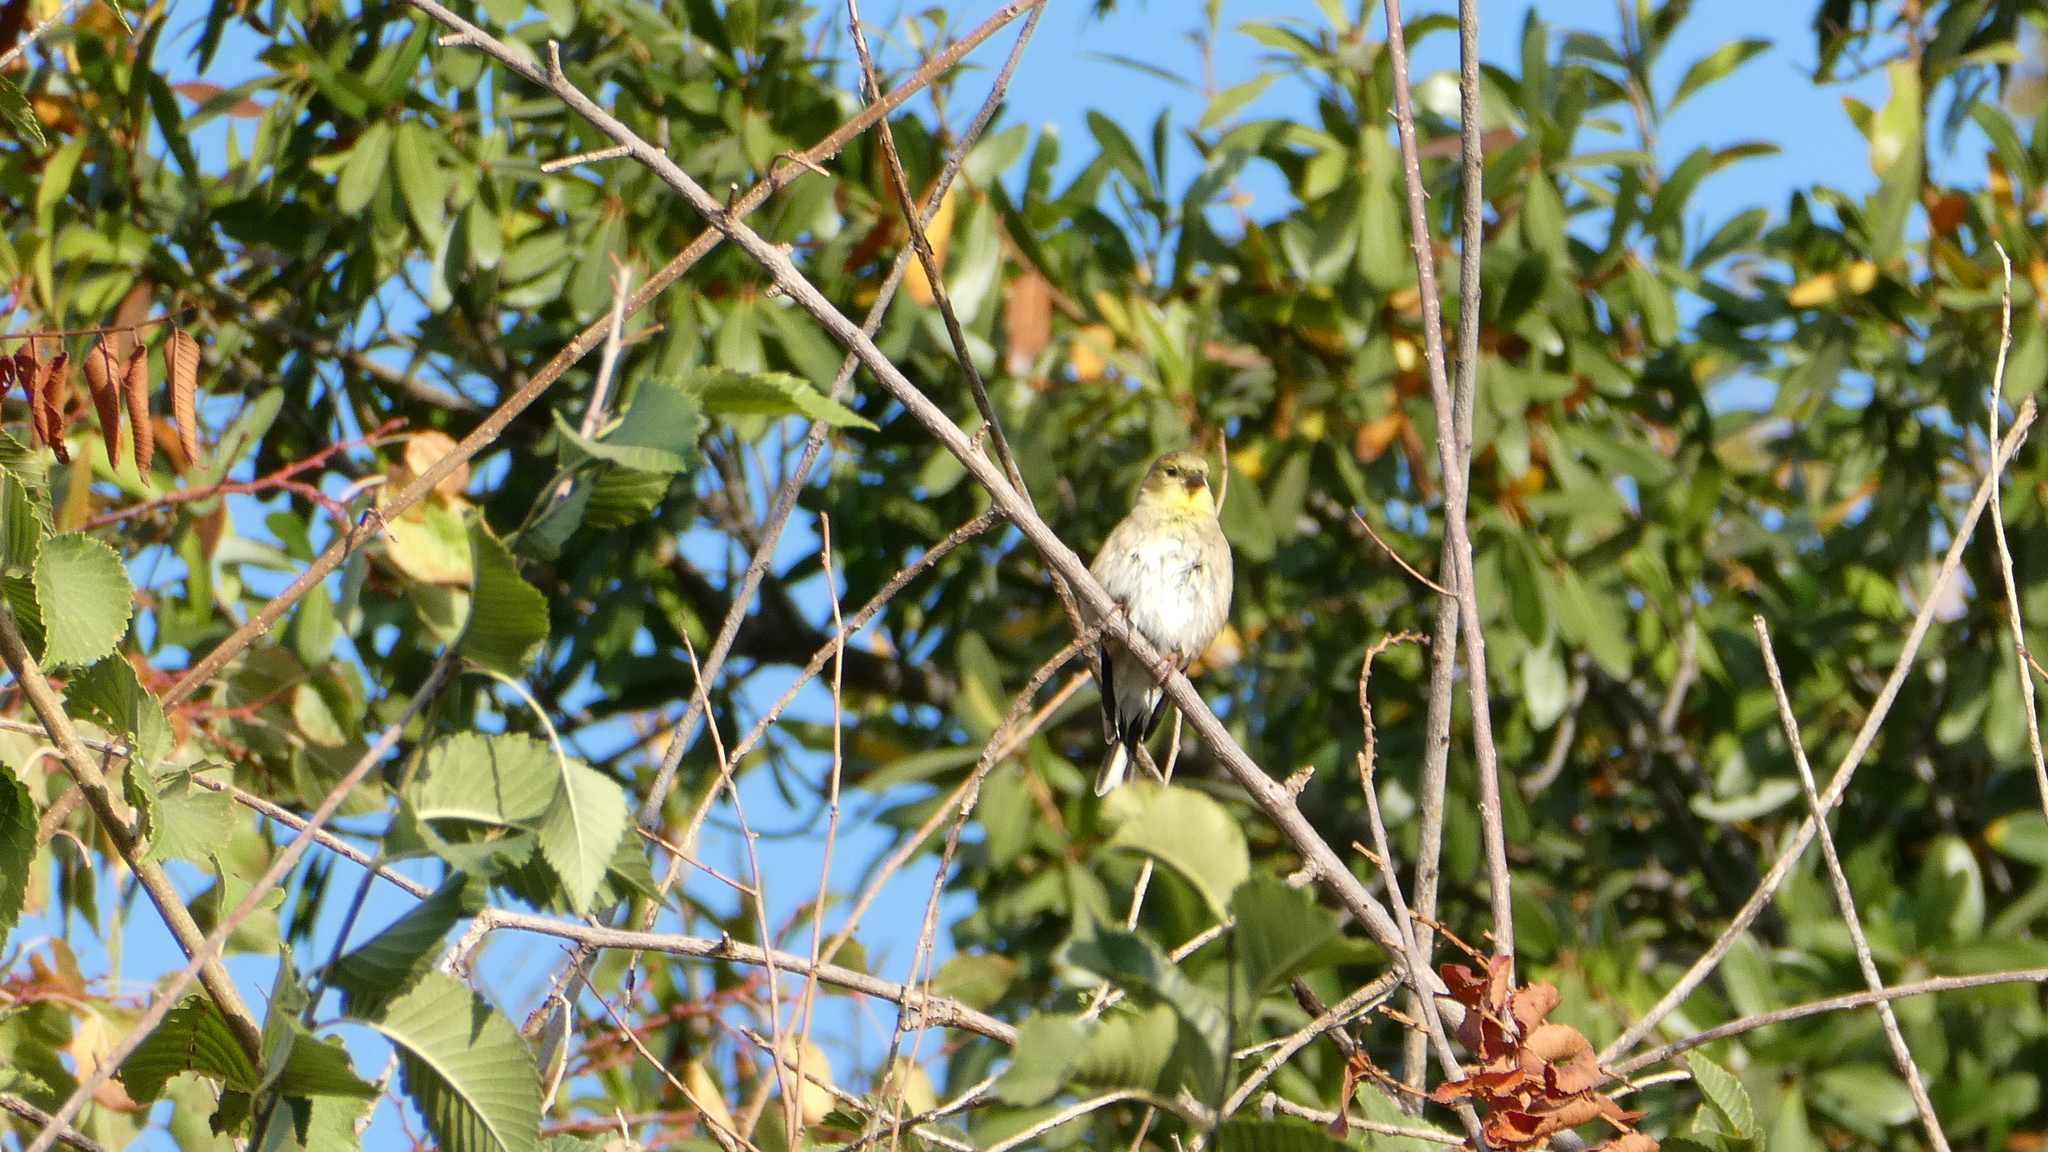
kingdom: Animalia
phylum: Chordata
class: Aves
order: Passeriformes
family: Fringillidae
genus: Spinus
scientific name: Spinus tristis
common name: American goldfinch
